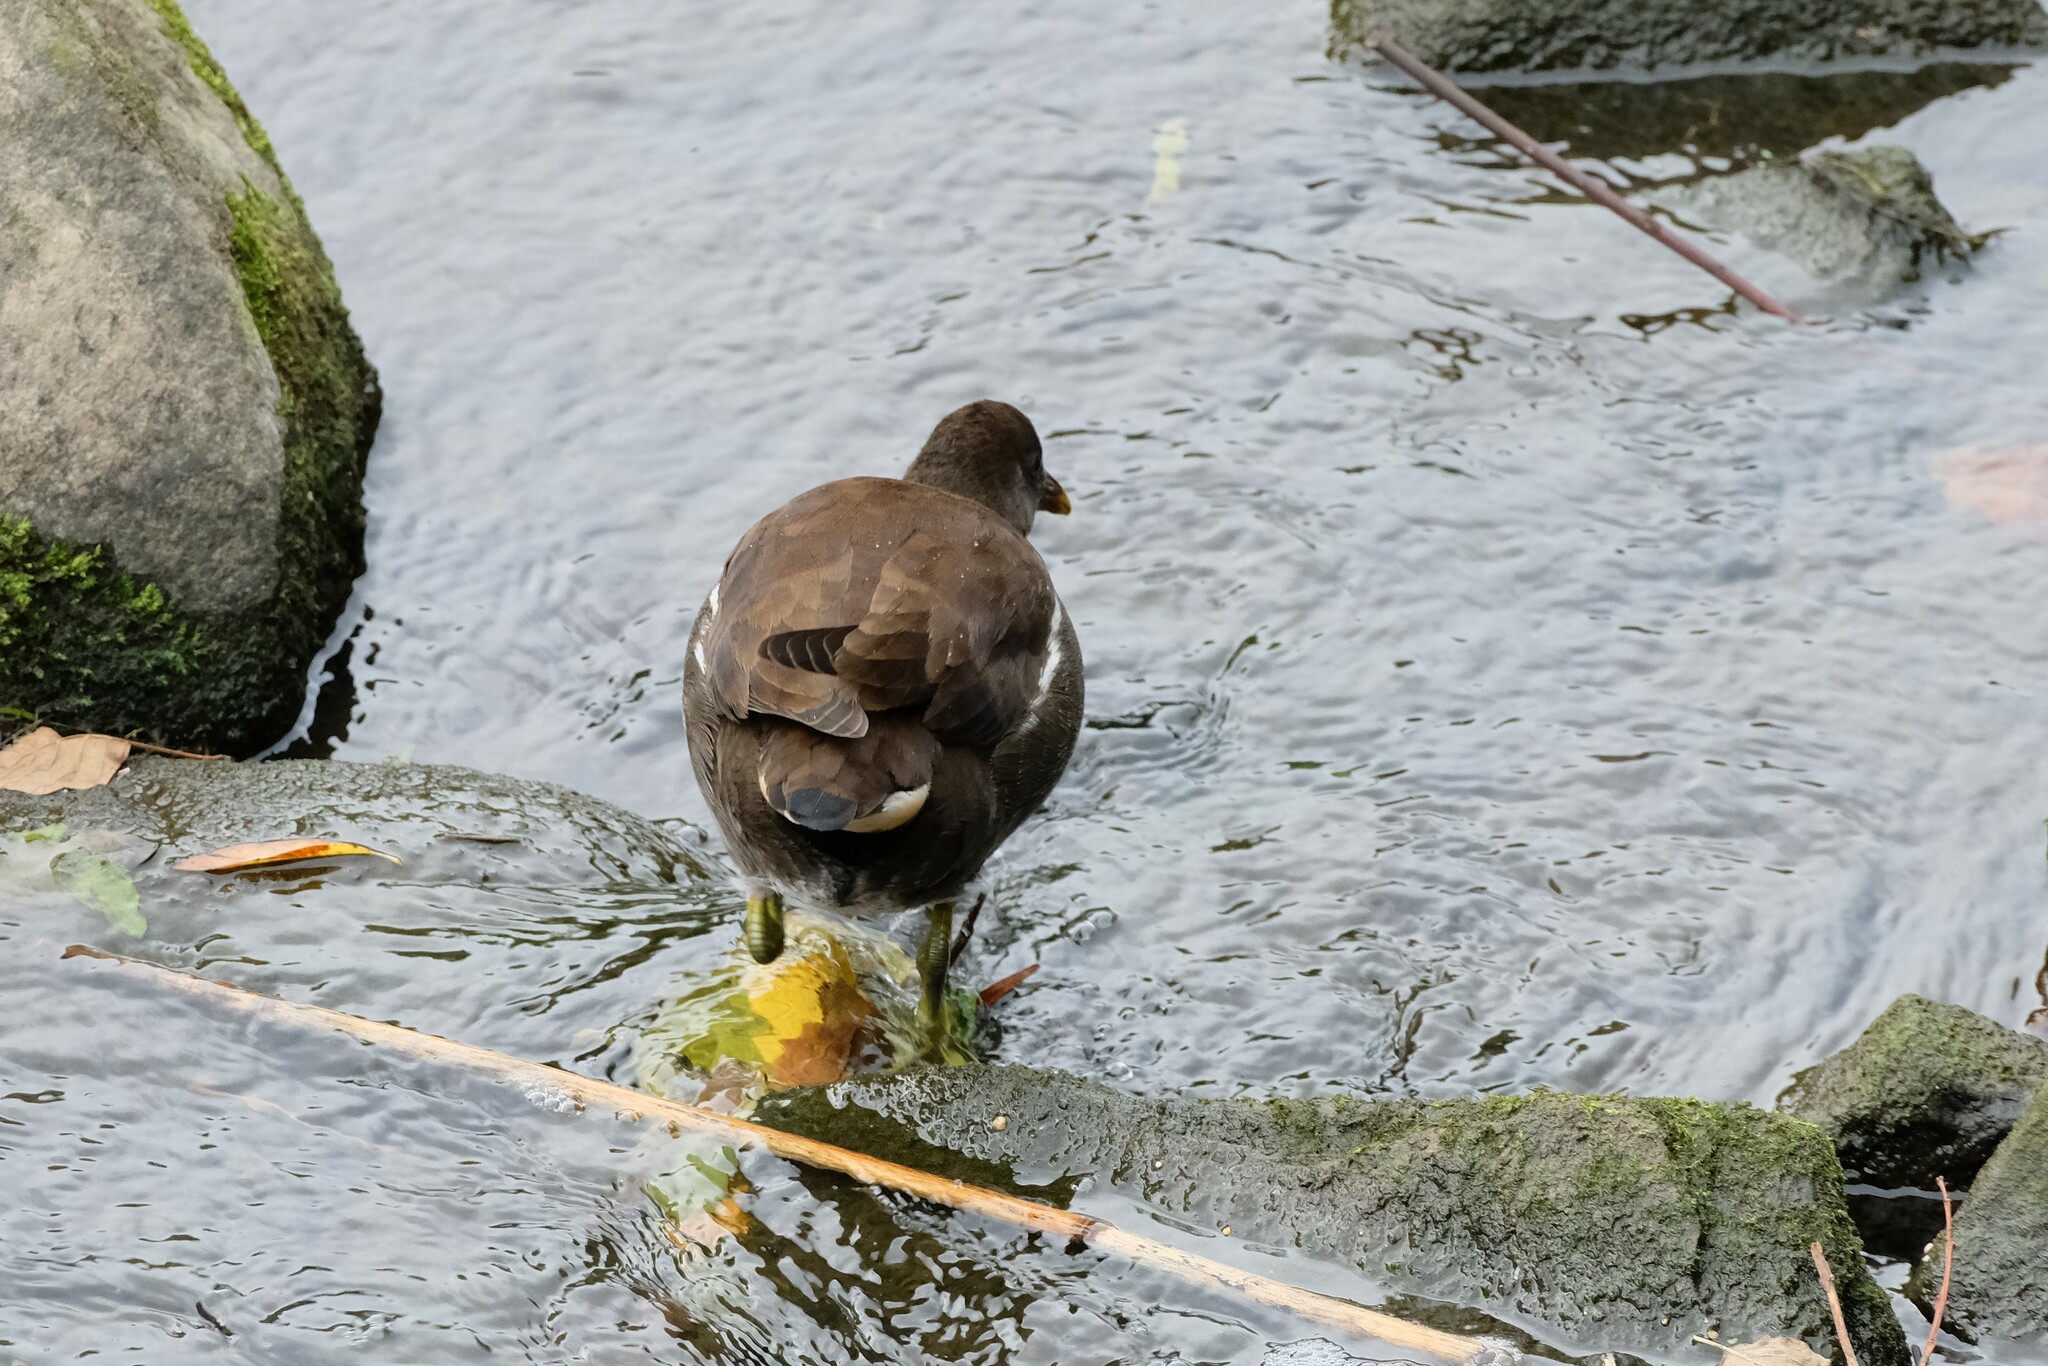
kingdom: Animalia
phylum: Chordata
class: Aves
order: Gruiformes
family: Rallidae
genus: Gallinula
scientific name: Gallinula chloropus
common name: Common moorhen
